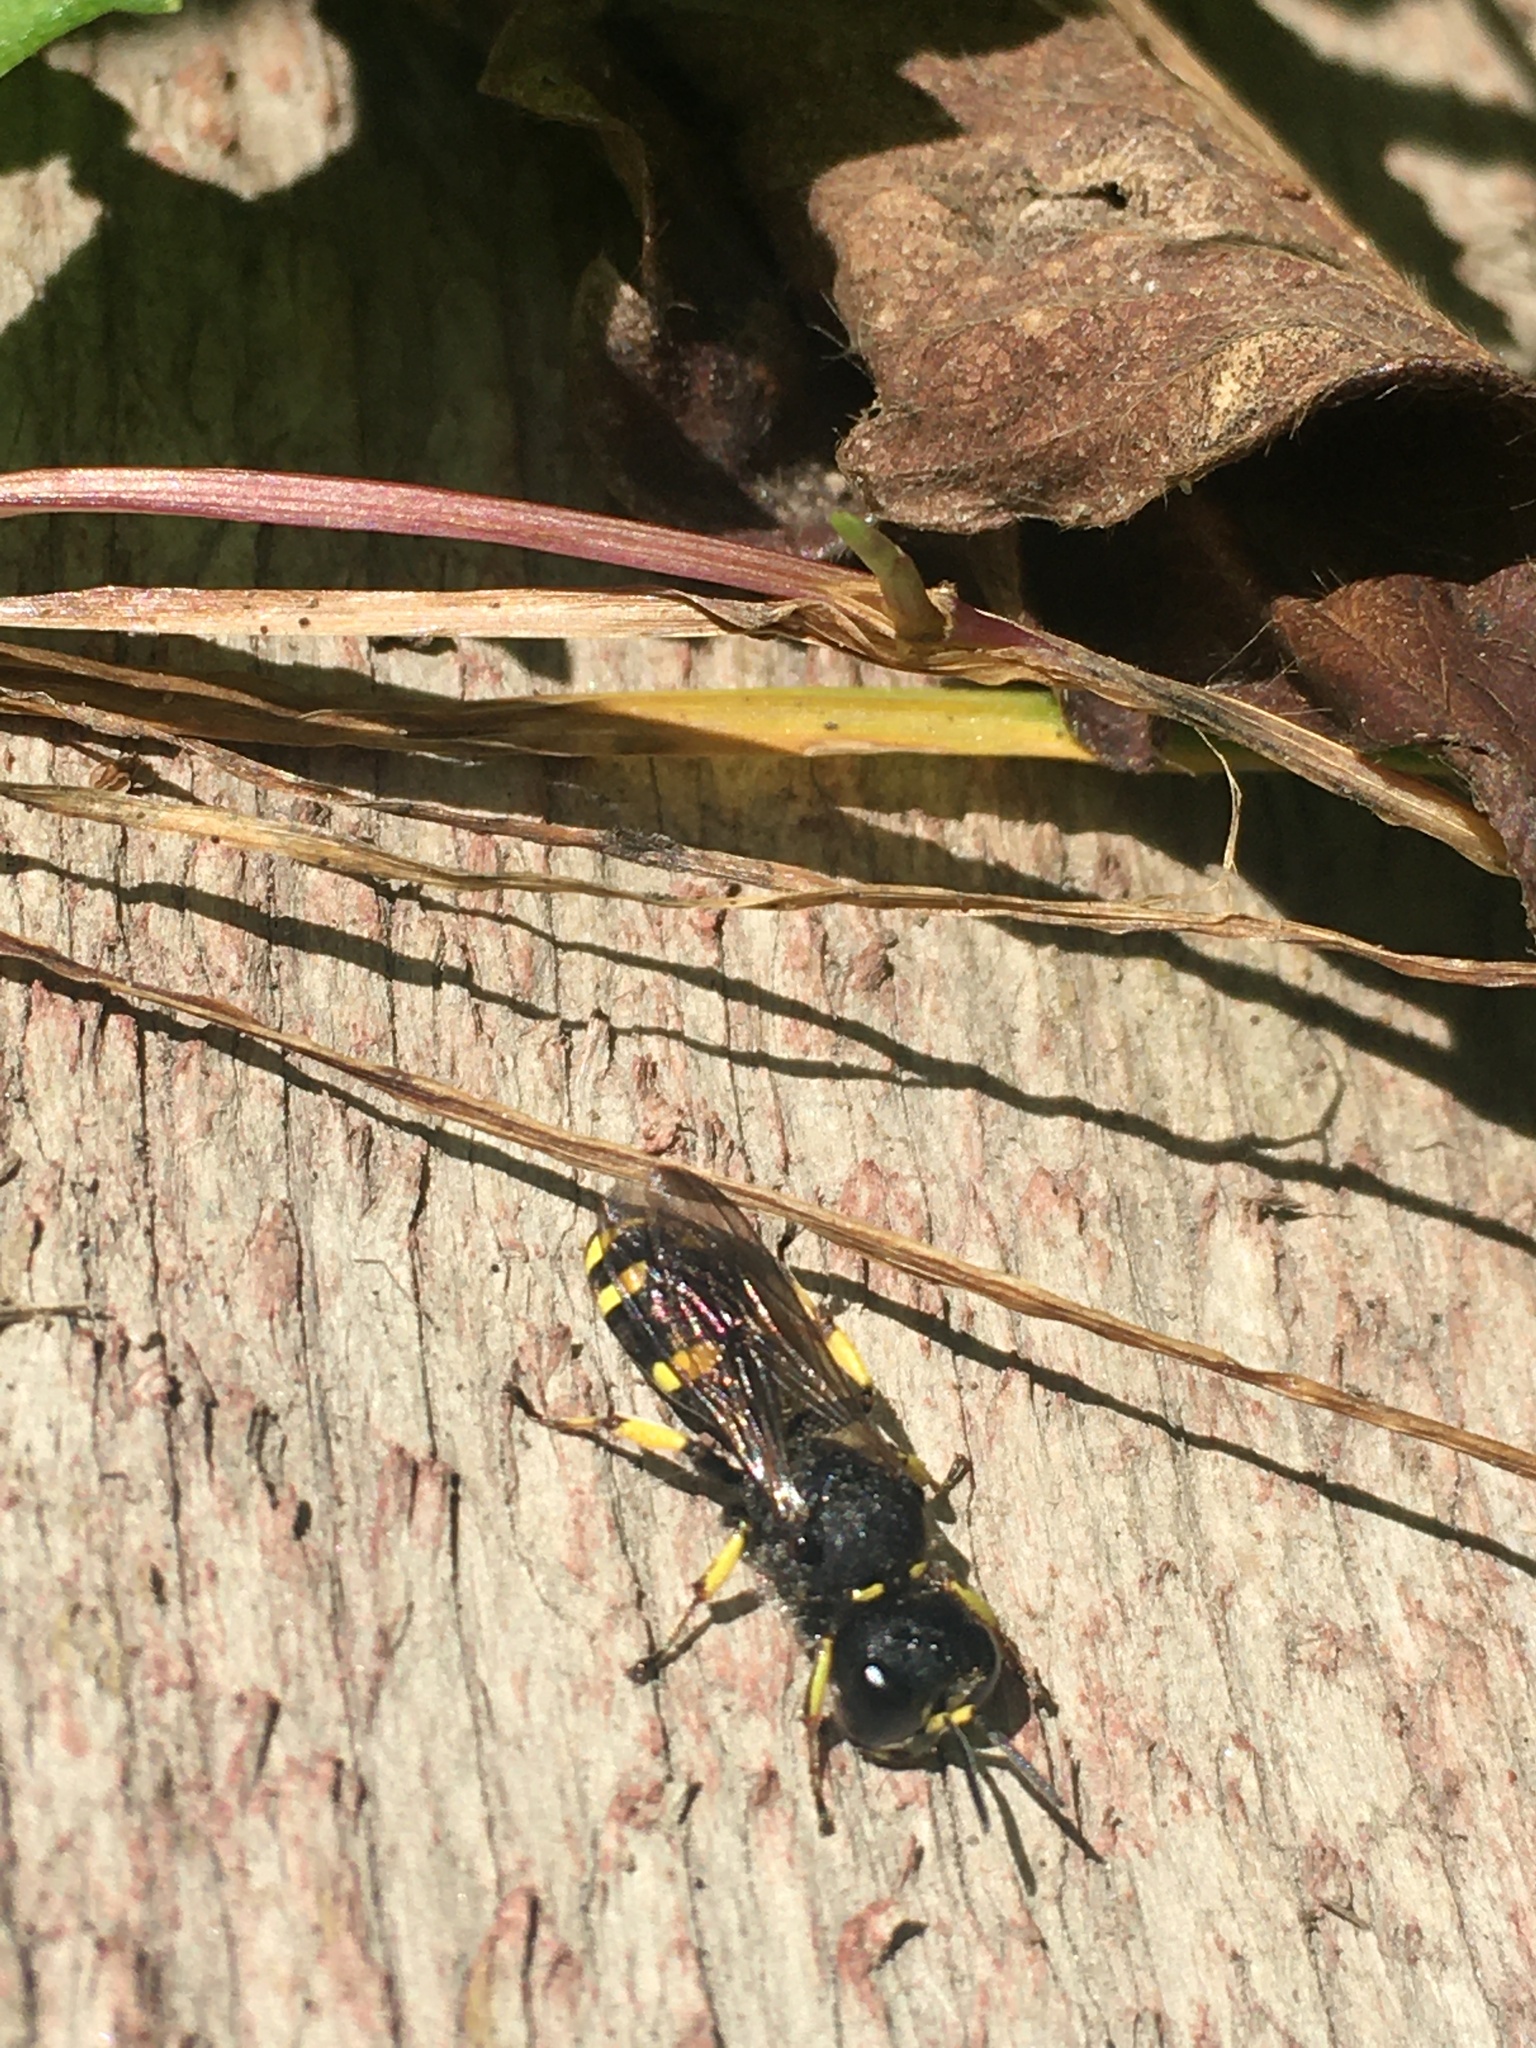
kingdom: Animalia
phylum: Arthropoda
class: Insecta
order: Hymenoptera
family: Crabronidae
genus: Ectemnius
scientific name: Ectemnius continuus
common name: Common ectemnius
